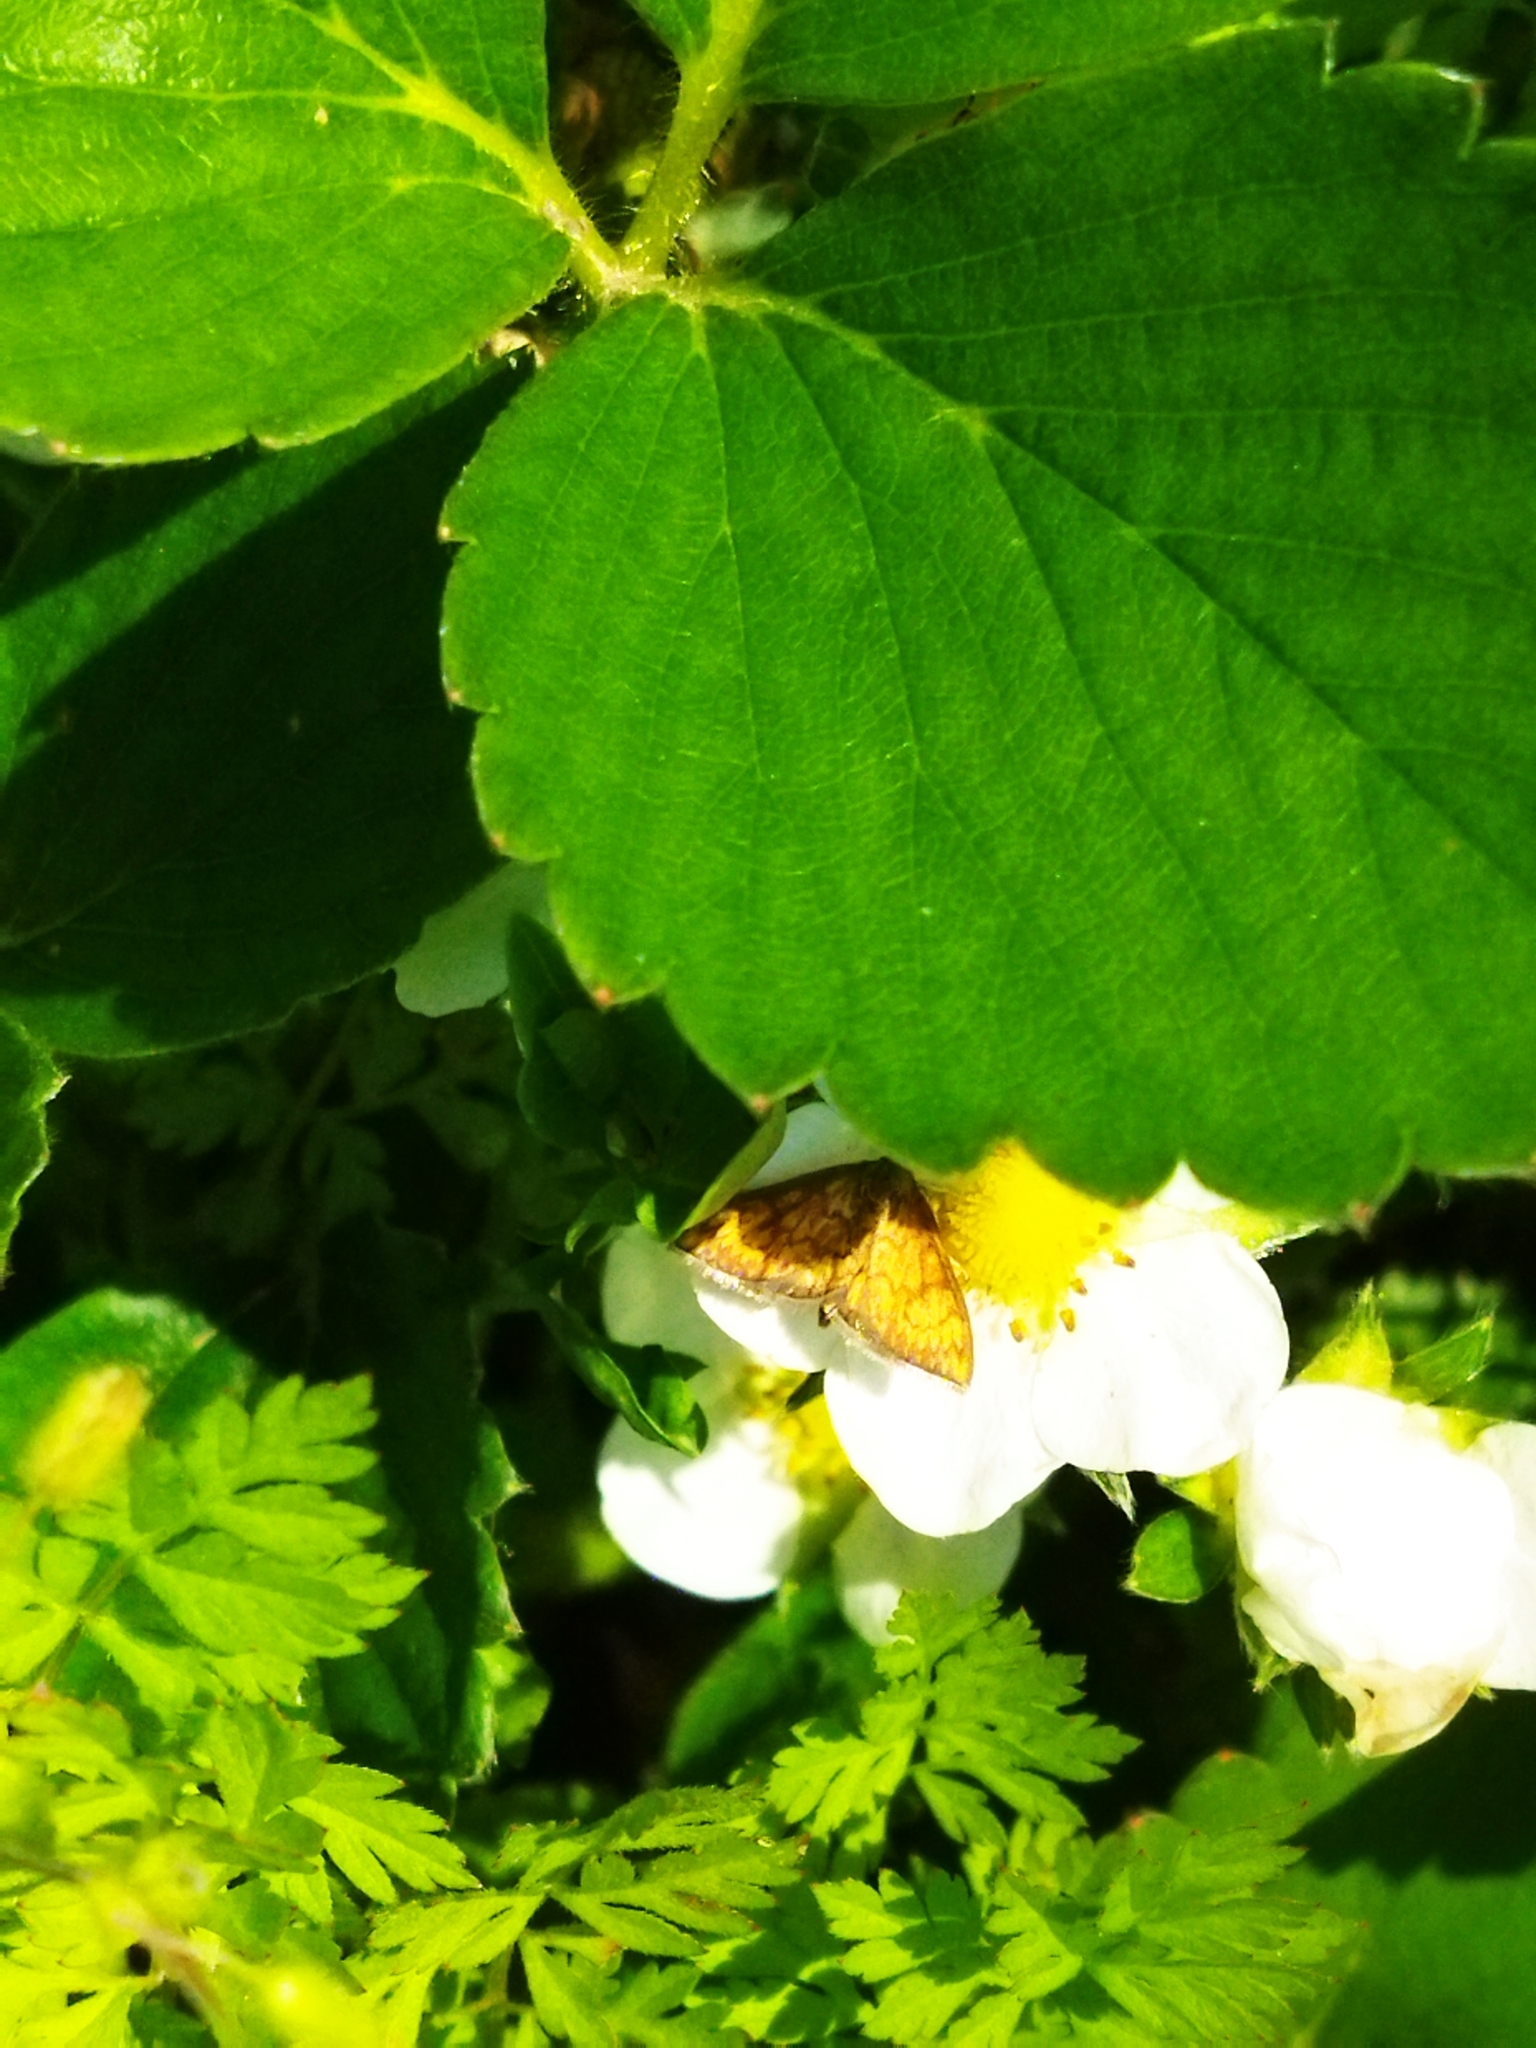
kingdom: Animalia
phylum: Arthropoda
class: Insecta
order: Lepidoptera
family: Crambidae
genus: Ecpyrrhorrhoe
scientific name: Ecpyrrhorrhoe rubiginalis
